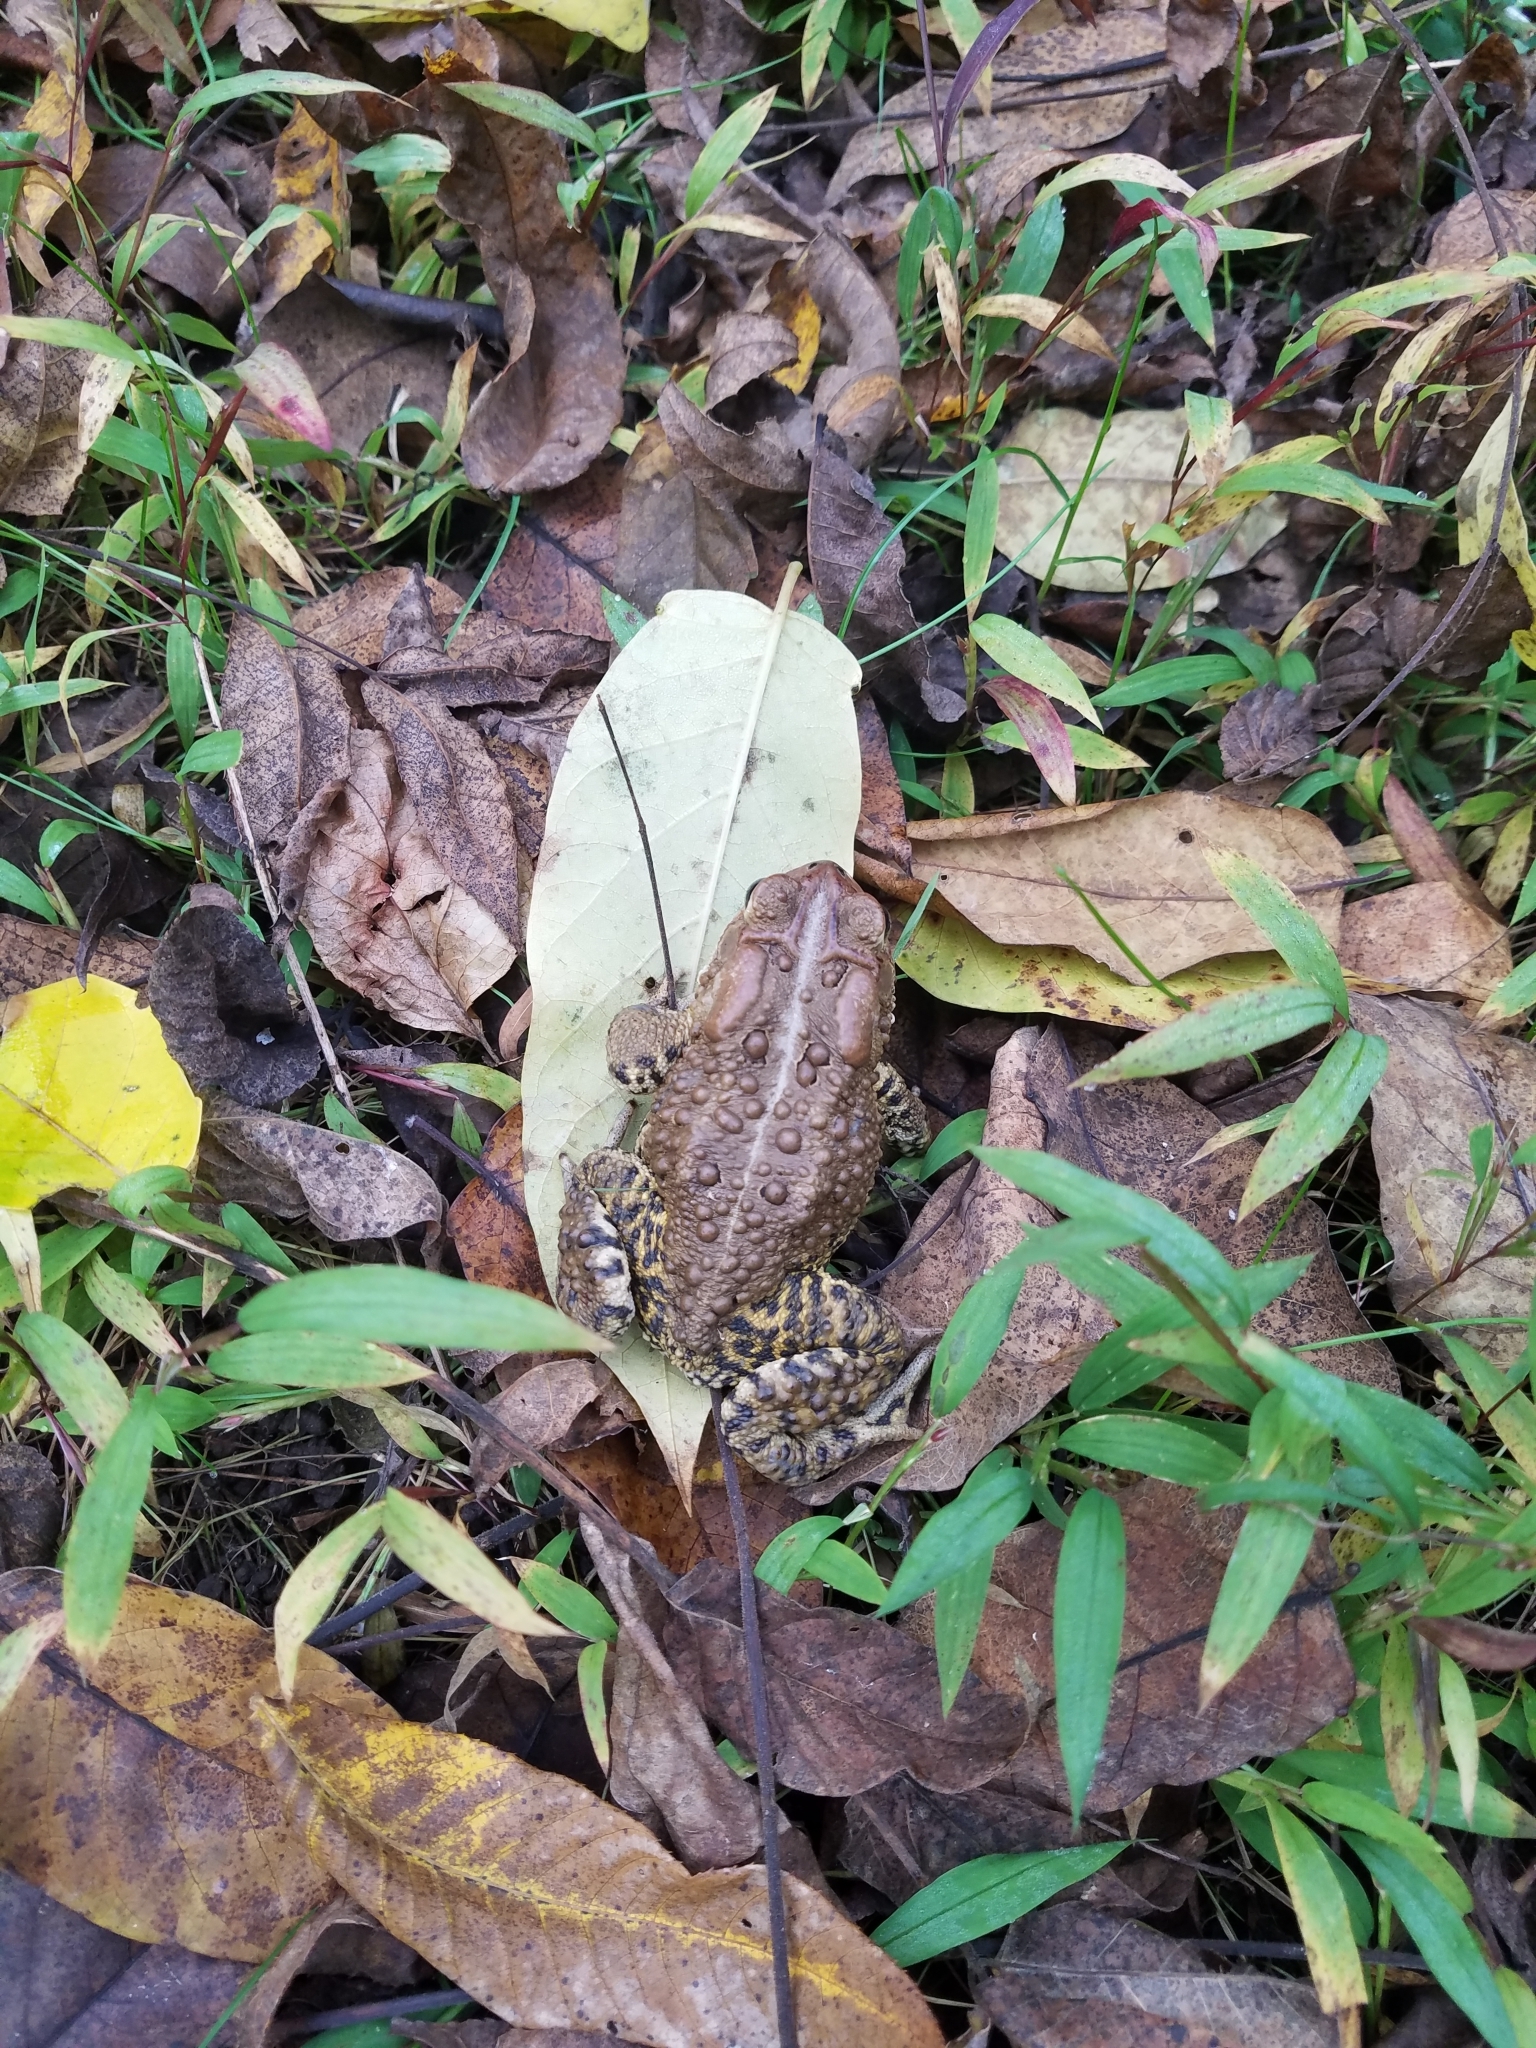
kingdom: Animalia
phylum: Chordata
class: Amphibia
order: Anura
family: Bufonidae
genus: Anaxyrus
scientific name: Anaxyrus americanus
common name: American toad
